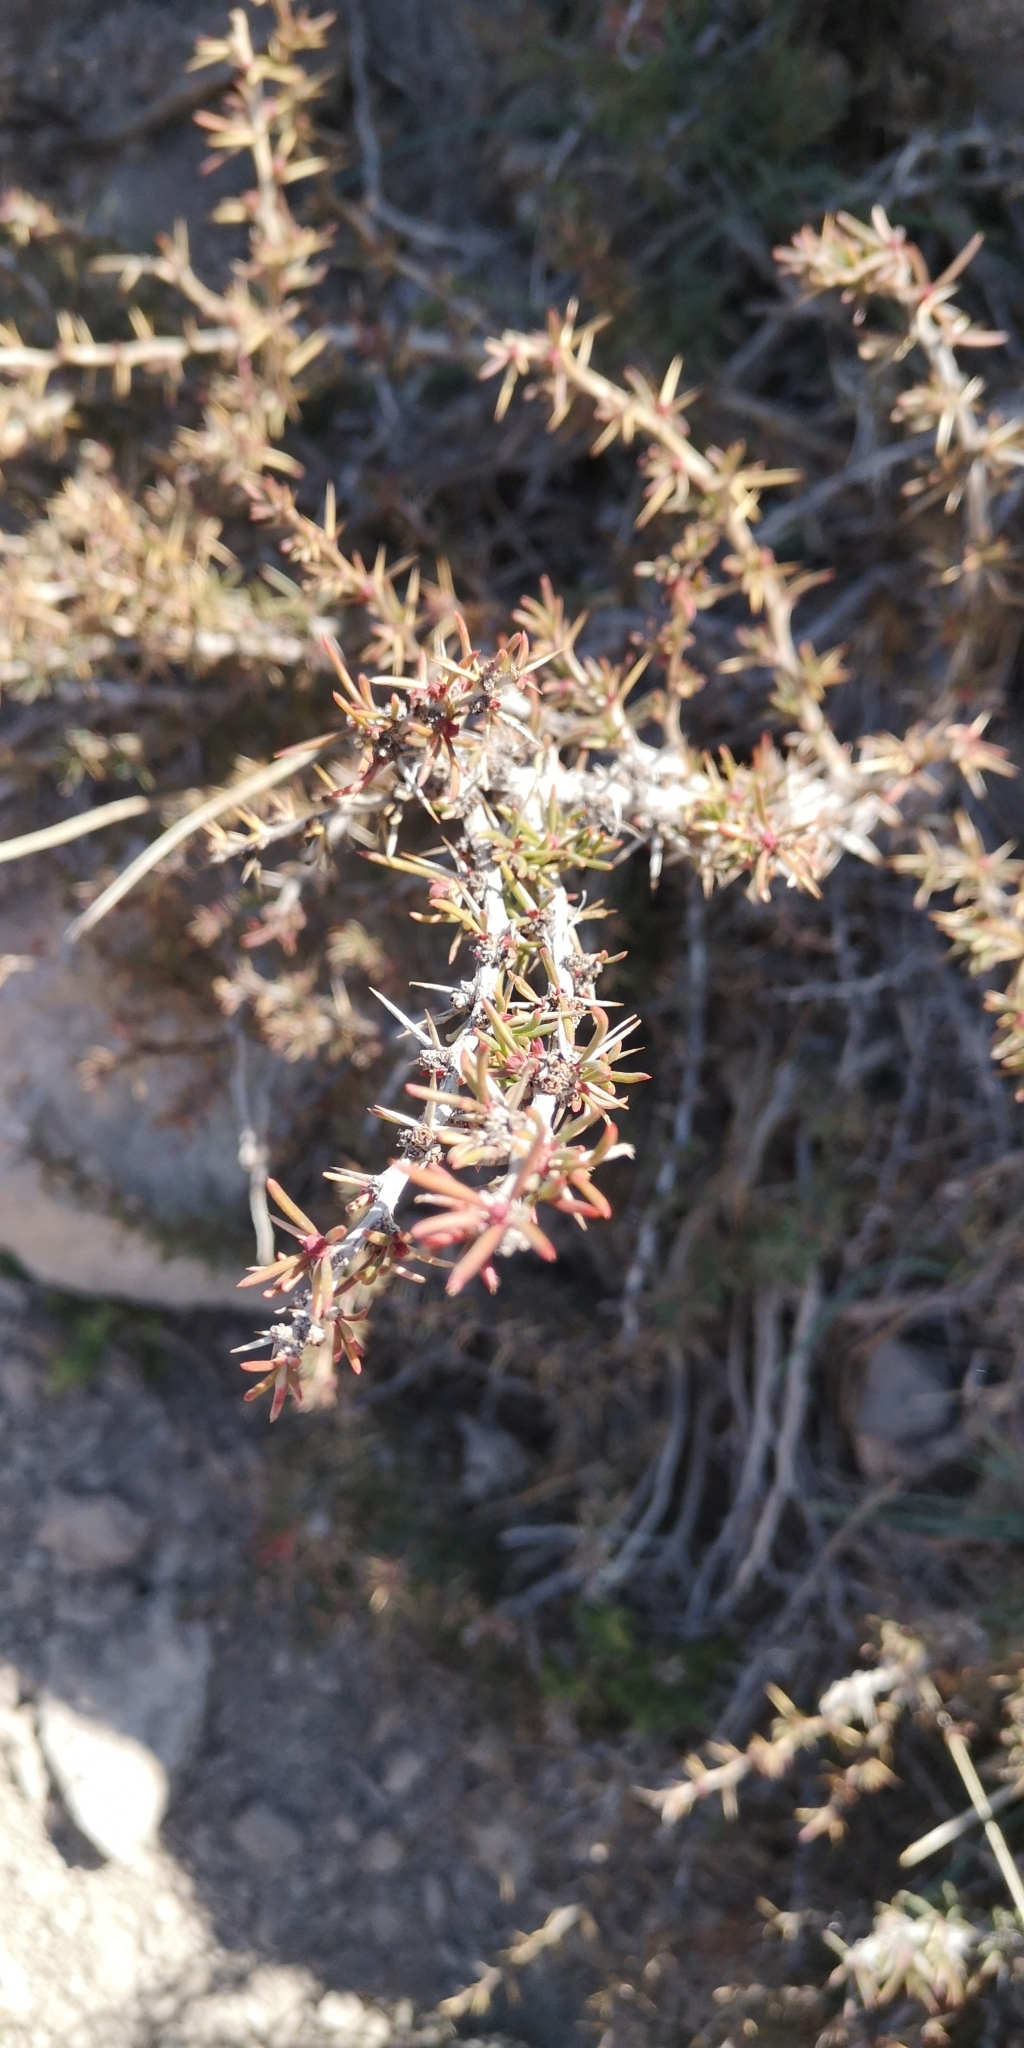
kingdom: Plantae
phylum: Tracheophyta
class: Magnoliopsida
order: Ranunculales
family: Berberidaceae
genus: Berberis
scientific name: Berberis empetrifolia
